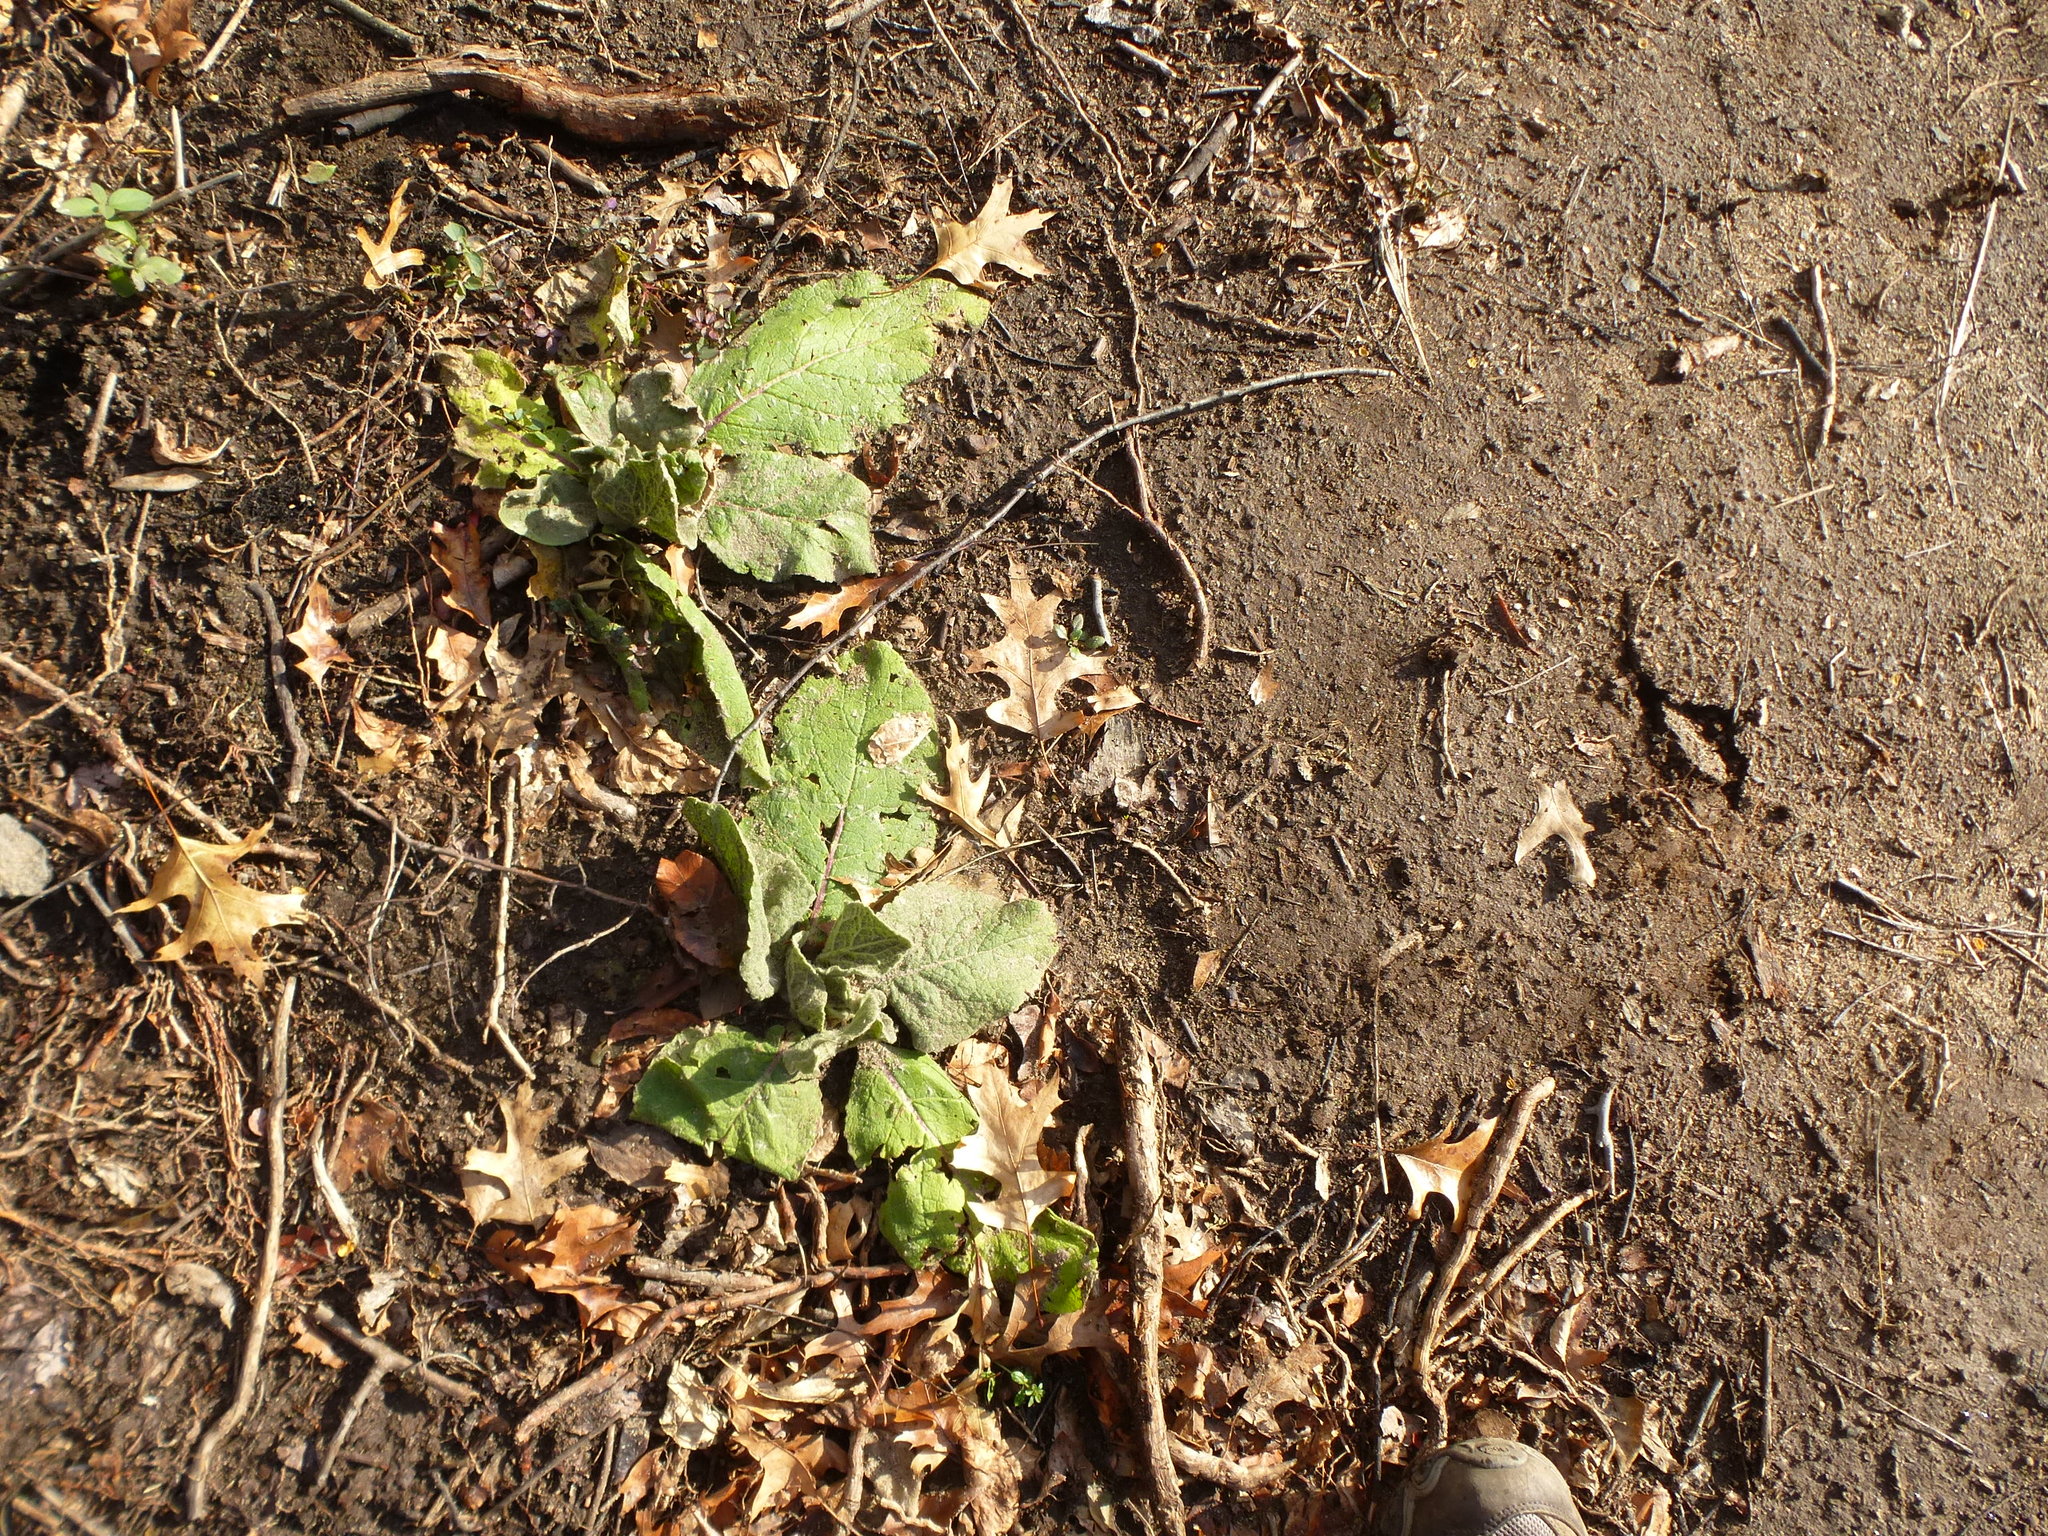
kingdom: Plantae
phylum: Tracheophyta
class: Magnoliopsida
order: Lamiales
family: Scrophulariaceae
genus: Verbascum
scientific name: Verbascum thapsus
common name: Common mullein
